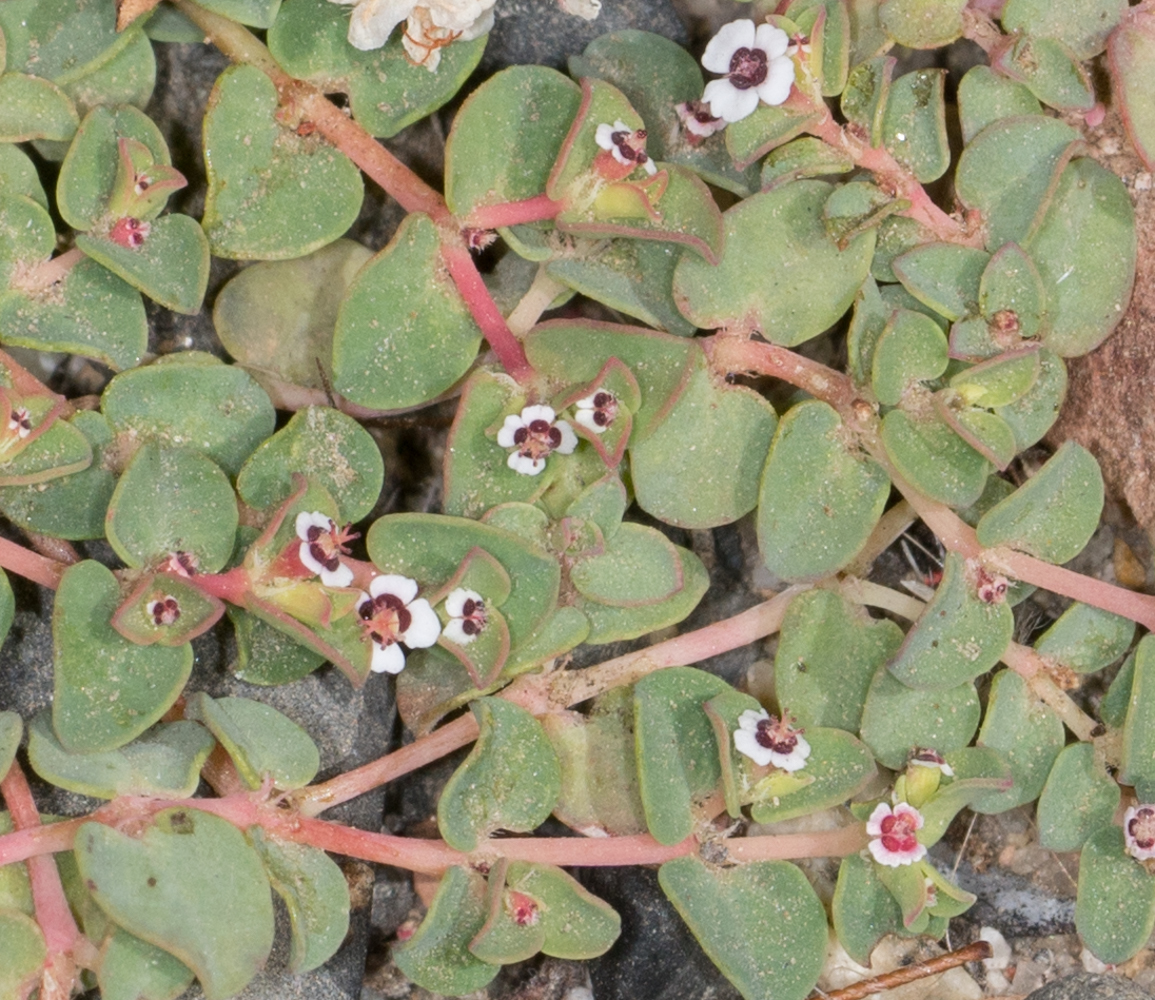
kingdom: Plantae
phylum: Tracheophyta
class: Magnoliopsida
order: Malpighiales
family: Euphorbiaceae
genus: Euphorbia
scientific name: Euphorbia polycarpa
